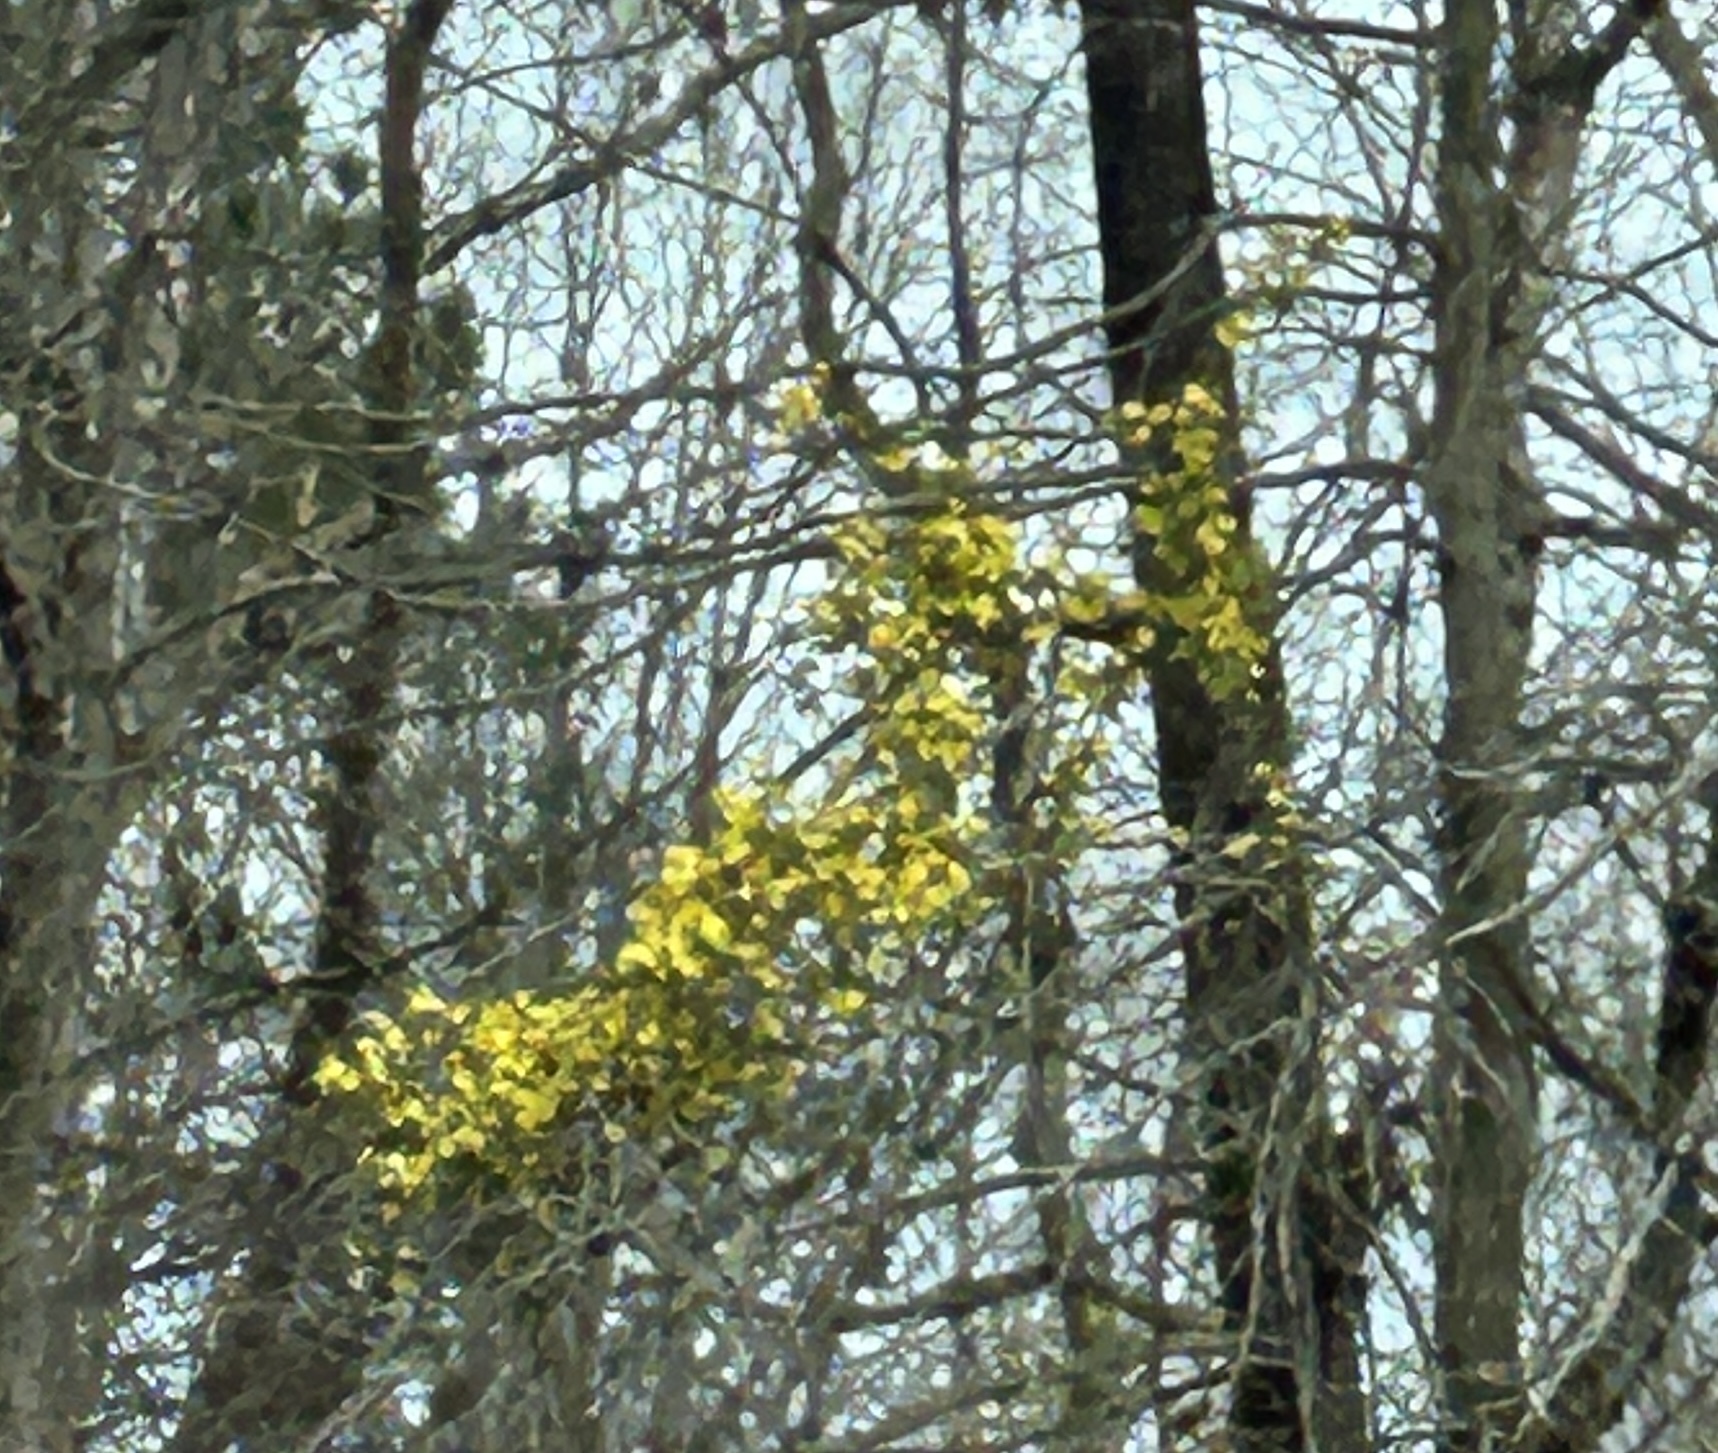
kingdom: Plantae
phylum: Tracheophyta
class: Magnoliopsida
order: Gentianales
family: Gelsemiaceae
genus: Gelsemium
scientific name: Gelsemium sempervirens
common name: Carolina-jasmine
